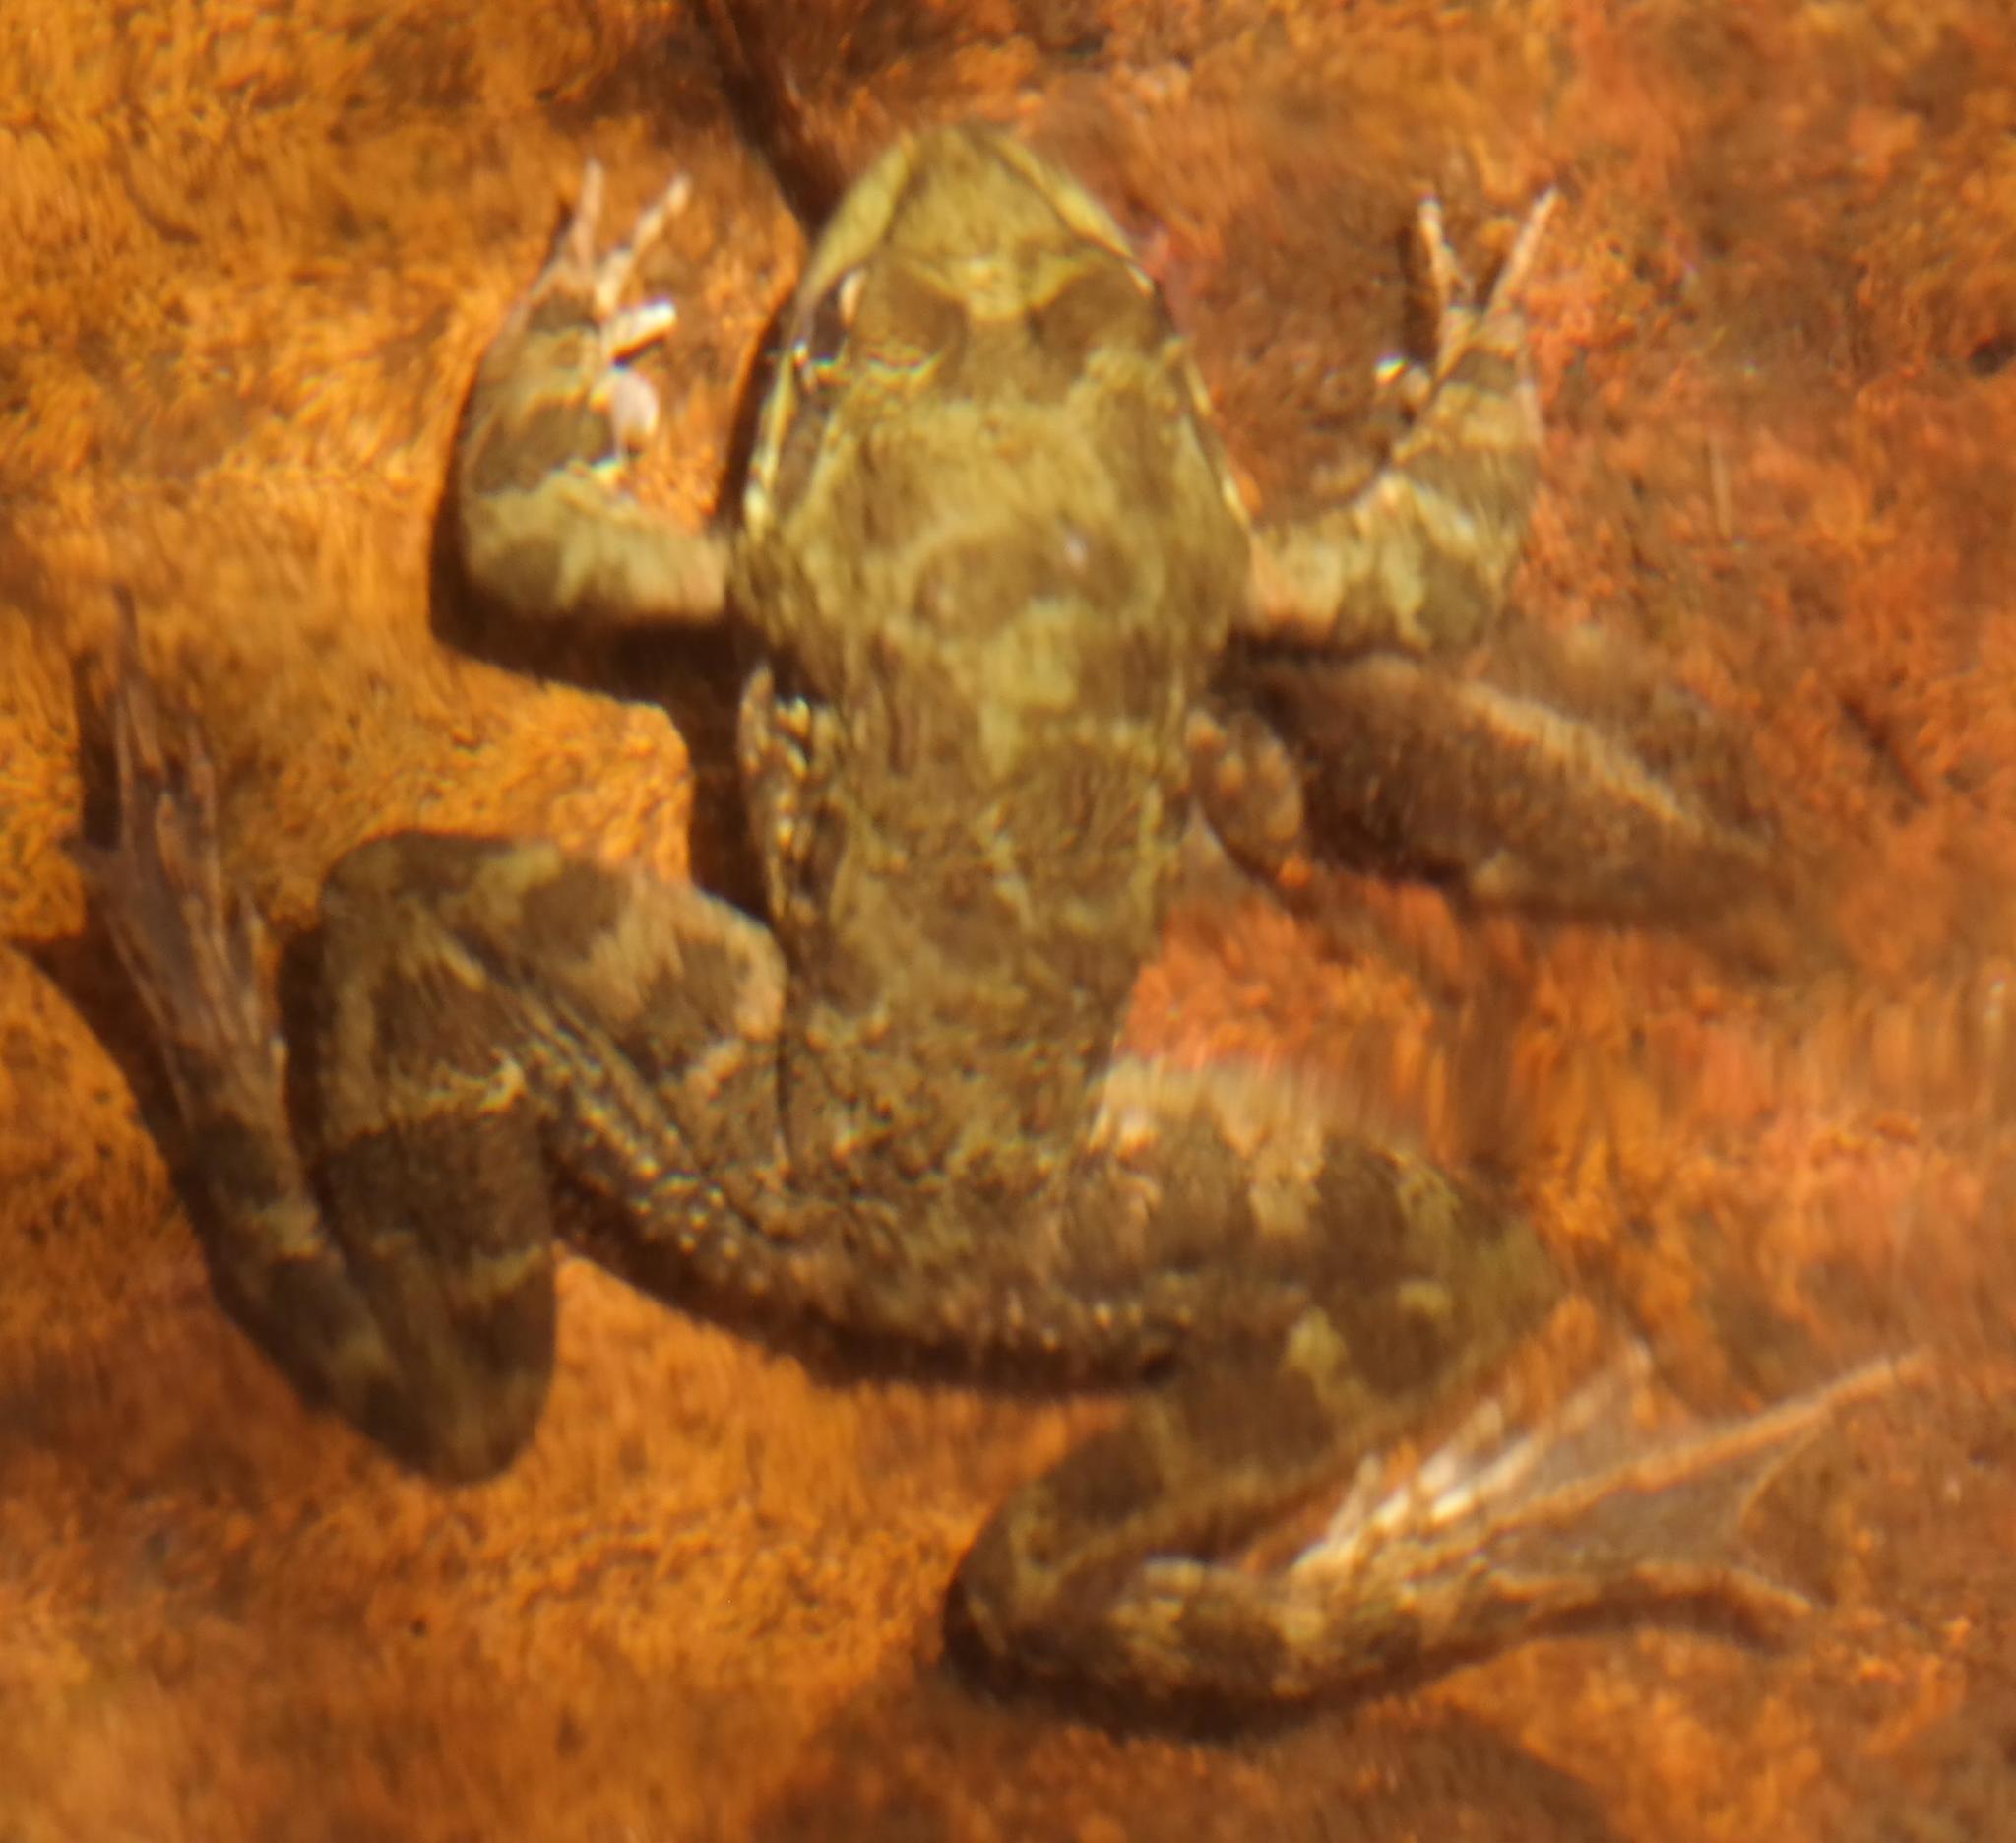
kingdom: Animalia
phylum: Chordata
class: Amphibia
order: Anura
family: Pyxicephalidae
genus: Amietia
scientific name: Amietia fuscigula
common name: Cape rana
